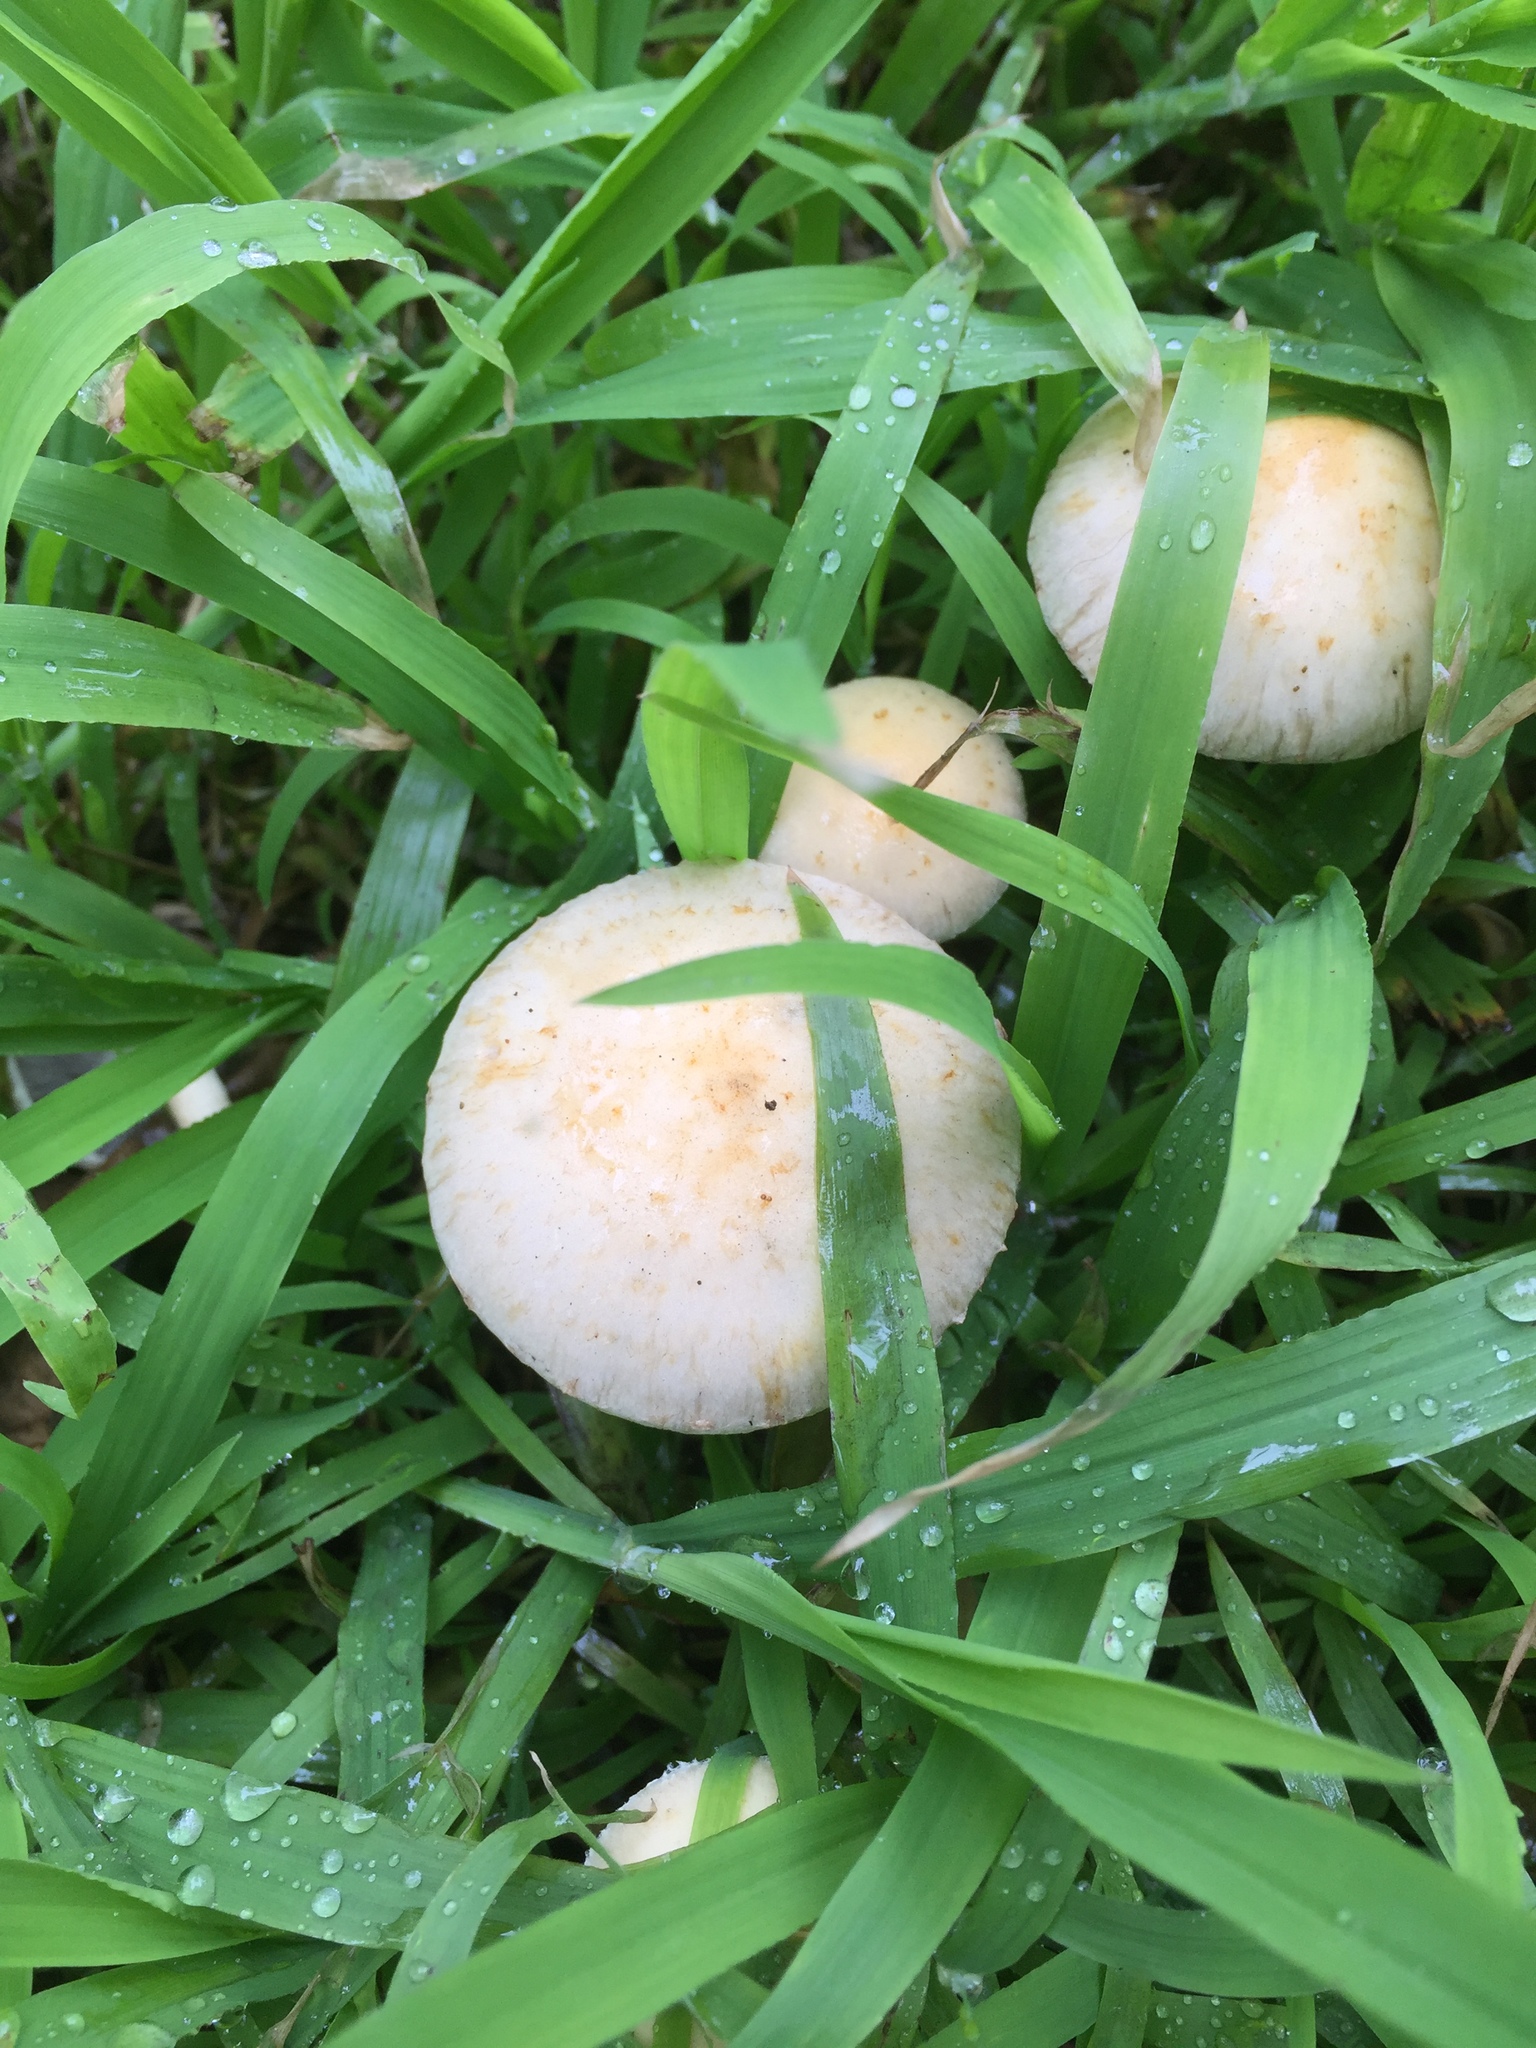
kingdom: Fungi
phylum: Basidiomycota
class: Agaricomycetes
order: Agaricales
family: Strophariaceae
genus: Leratiomyces
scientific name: Leratiomyces percevalii
